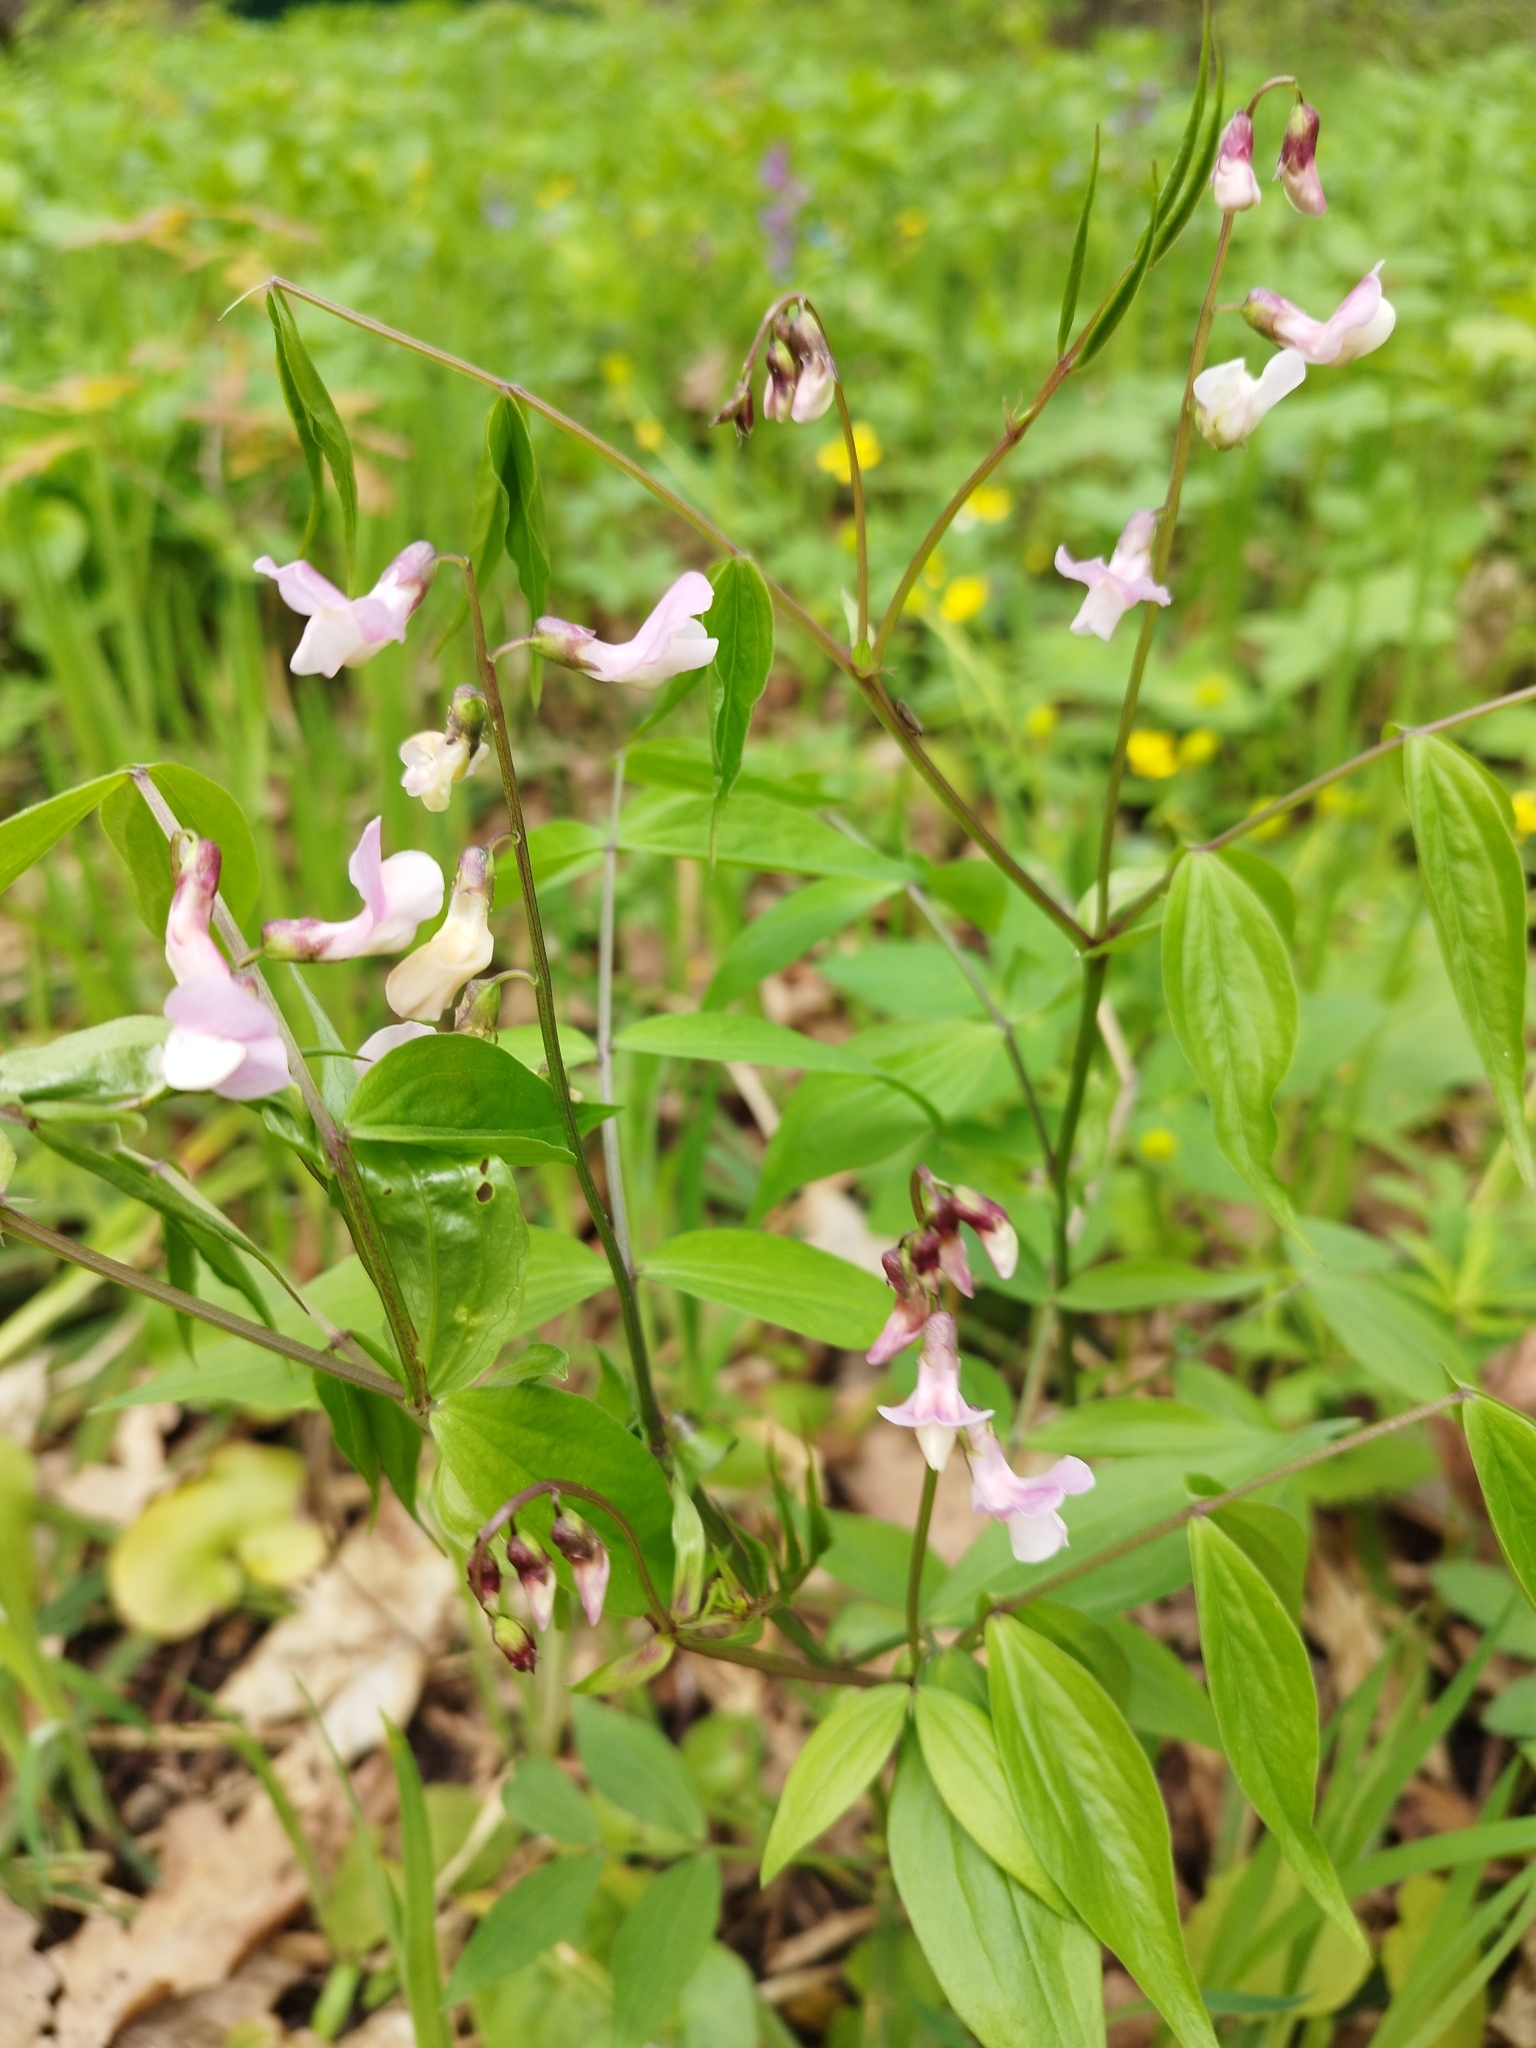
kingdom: Plantae
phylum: Tracheophyta
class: Magnoliopsida
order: Fabales
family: Fabaceae
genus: Lathyrus
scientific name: Lathyrus vernus
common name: Spring pea
